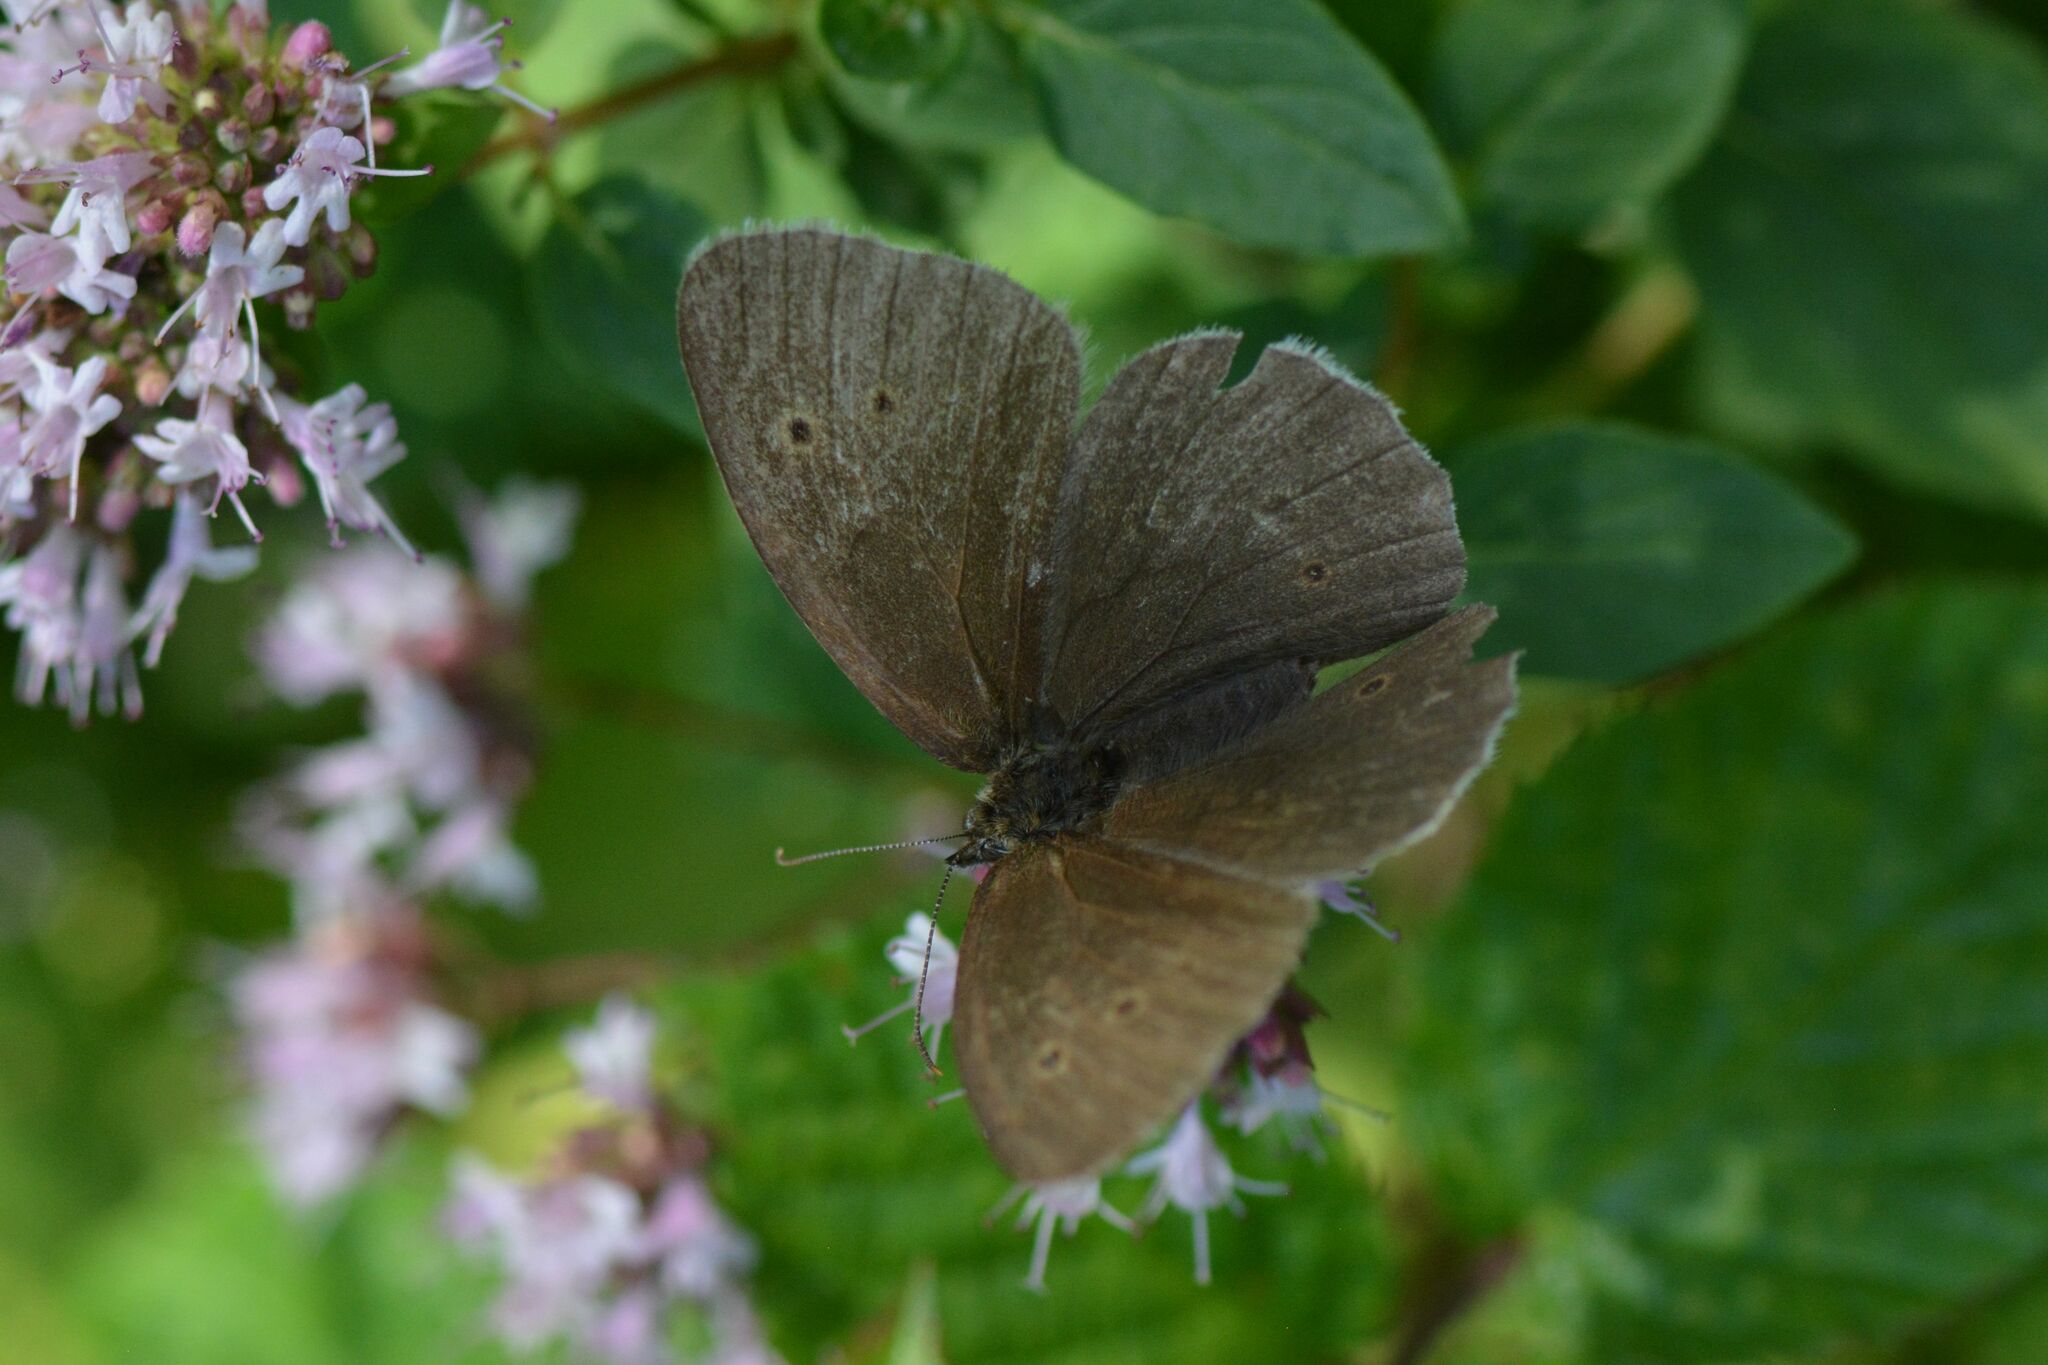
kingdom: Animalia
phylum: Arthropoda
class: Insecta
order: Lepidoptera
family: Nymphalidae
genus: Aphantopus
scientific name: Aphantopus hyperantus
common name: Ringlet
